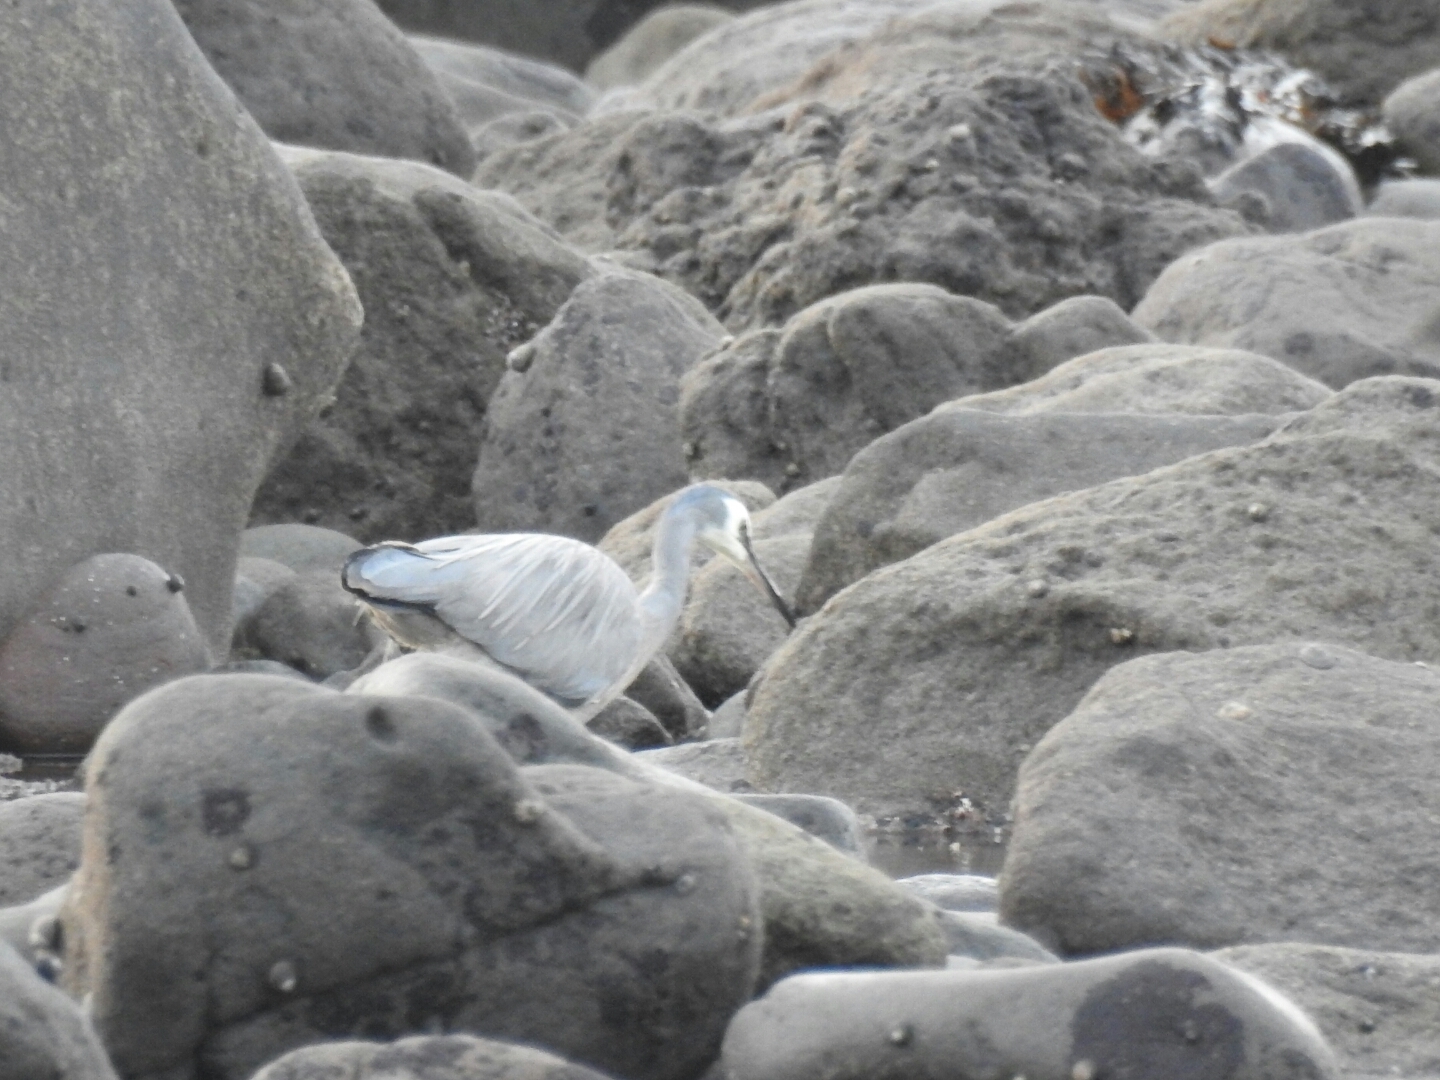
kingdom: Animalia
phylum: Chordata
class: Aves
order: Pelecaniformes
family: Ardeidae
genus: Egretta
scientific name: Egretta novaehollandiae
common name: White-faced heron
